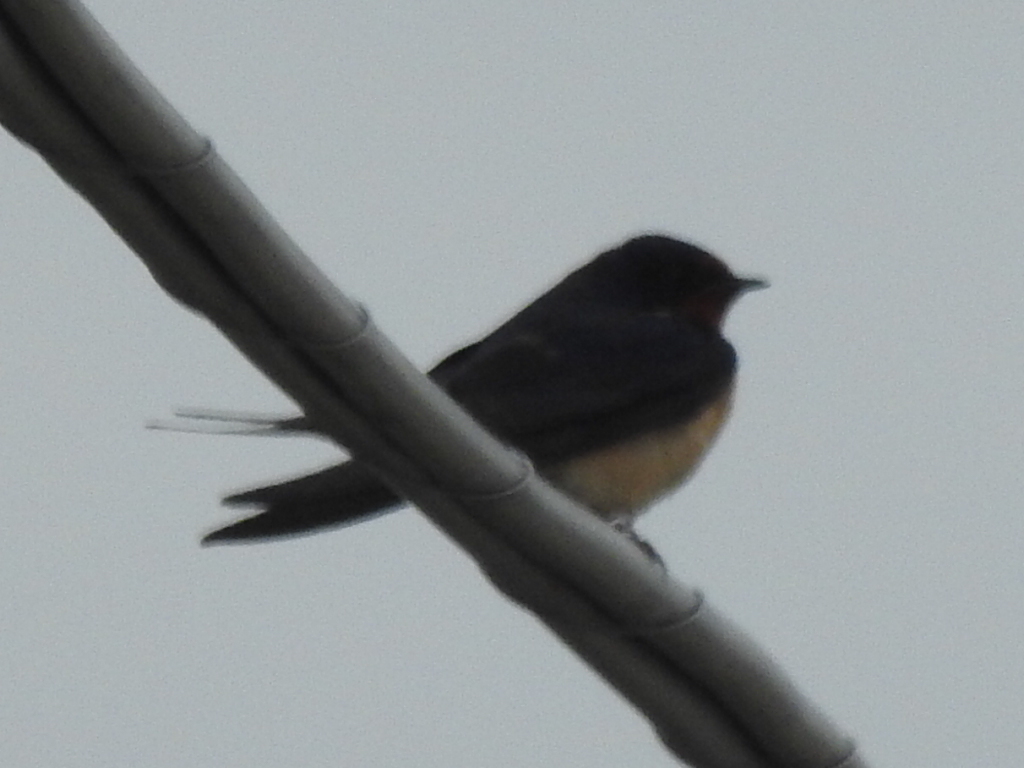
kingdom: Animalia
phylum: Chordata
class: Aves
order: Passeriformes
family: Hirundinidae
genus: Hirundo
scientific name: Hirundo rustica
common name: Barn swallow
